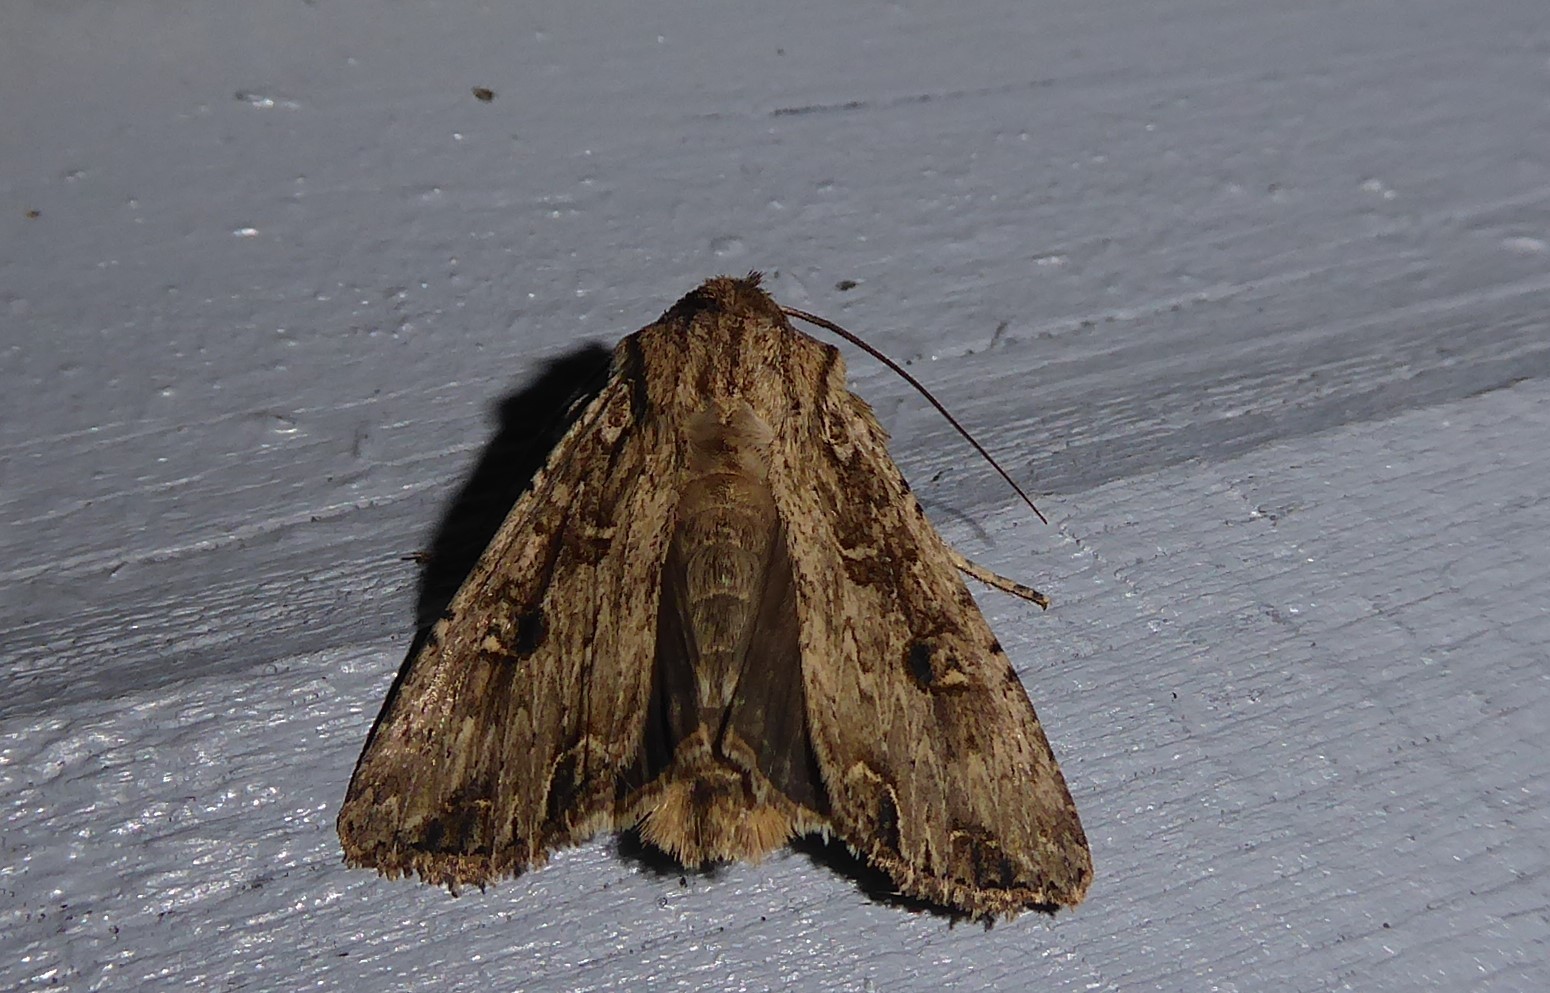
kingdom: Animalia
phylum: Arthropoda
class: Insecta
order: Lepidoptera
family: Noctuidae
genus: Ichneutica
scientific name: Ichneutica lignana
